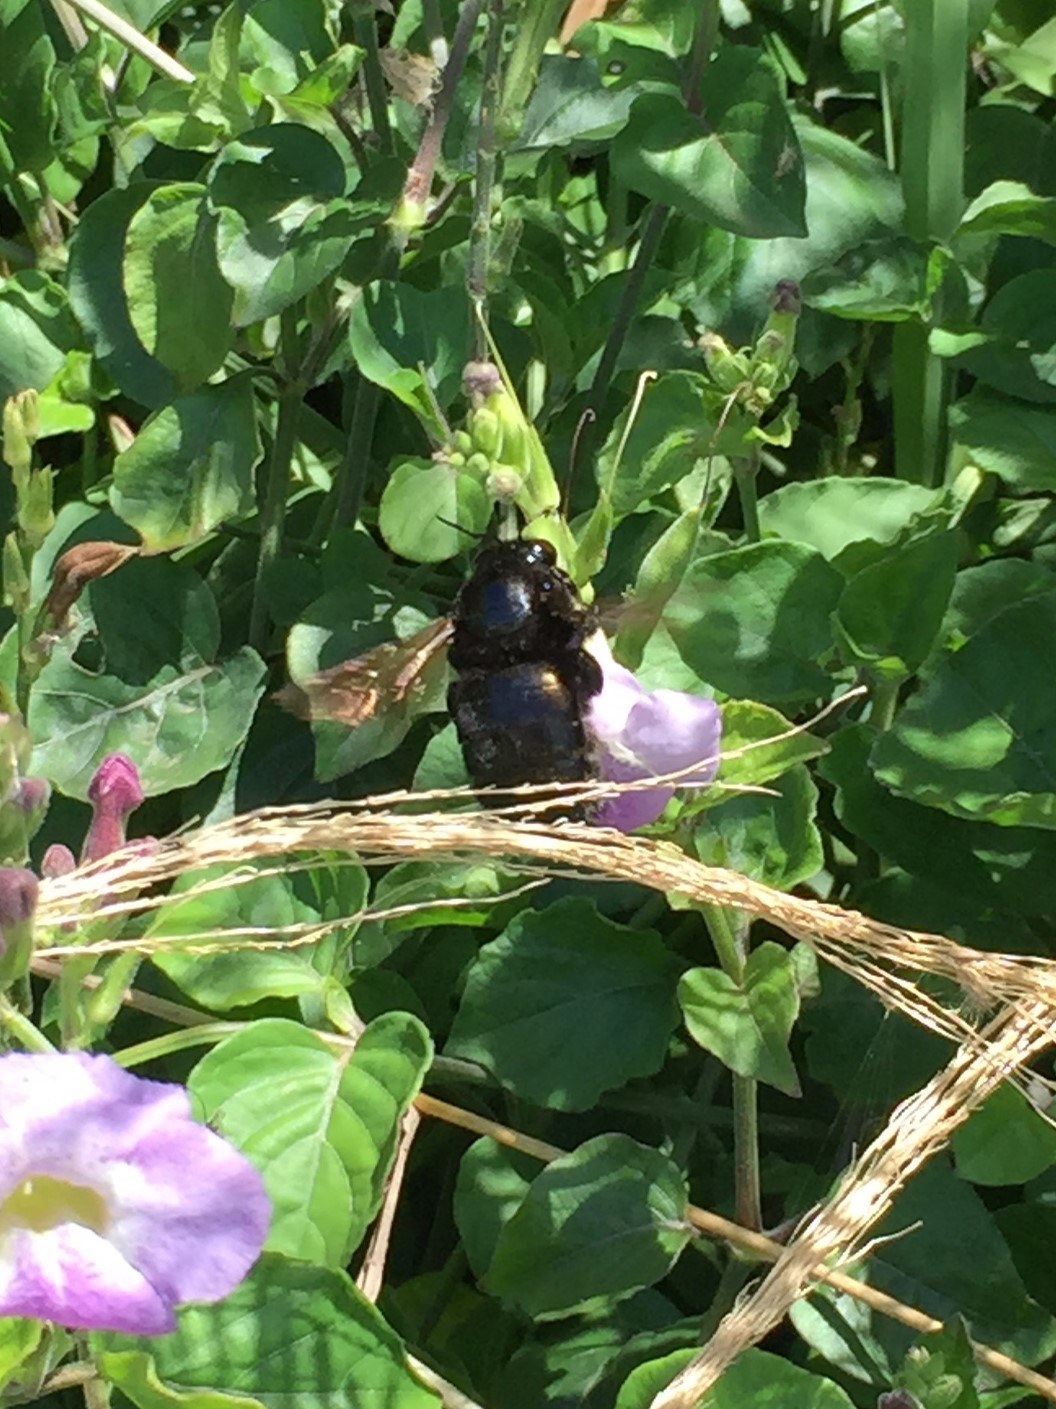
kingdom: Animalia
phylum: Arthropoda
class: Insecta
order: Hymenoptera
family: Apidae
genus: Xylocopa
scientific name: Xylocopa sonorina
